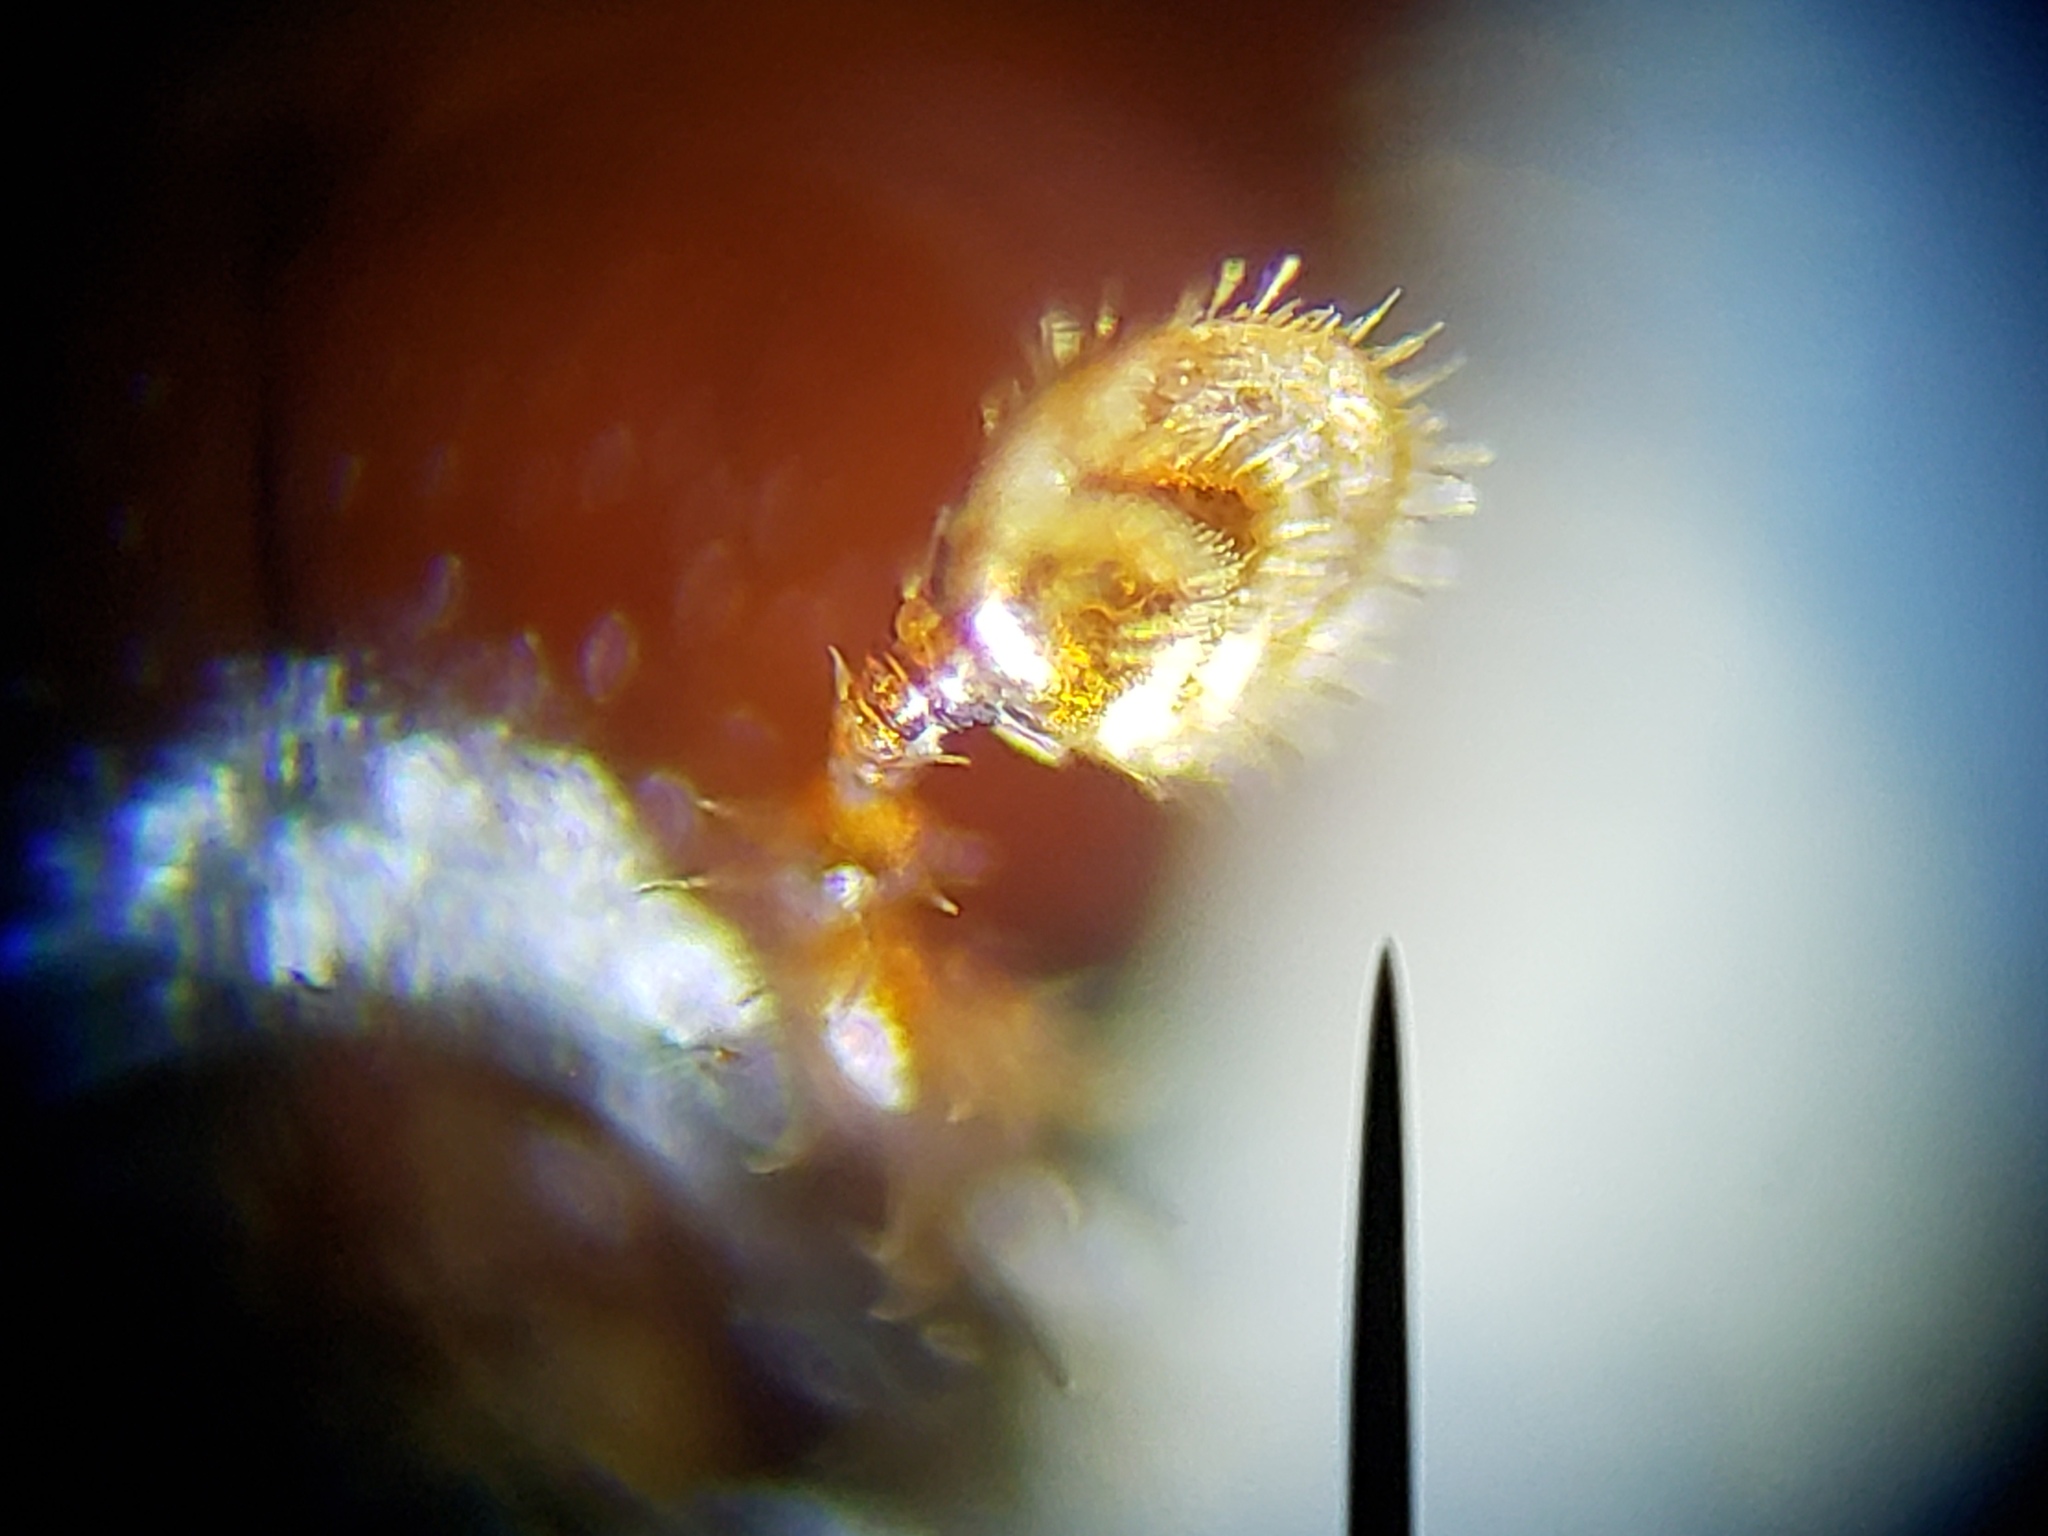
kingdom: Animalia
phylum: Arthropoda
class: Insecta
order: Coleoptera
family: Curculionidae
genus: Ips
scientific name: Ips grandicollis
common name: Eastern fivespined ips
